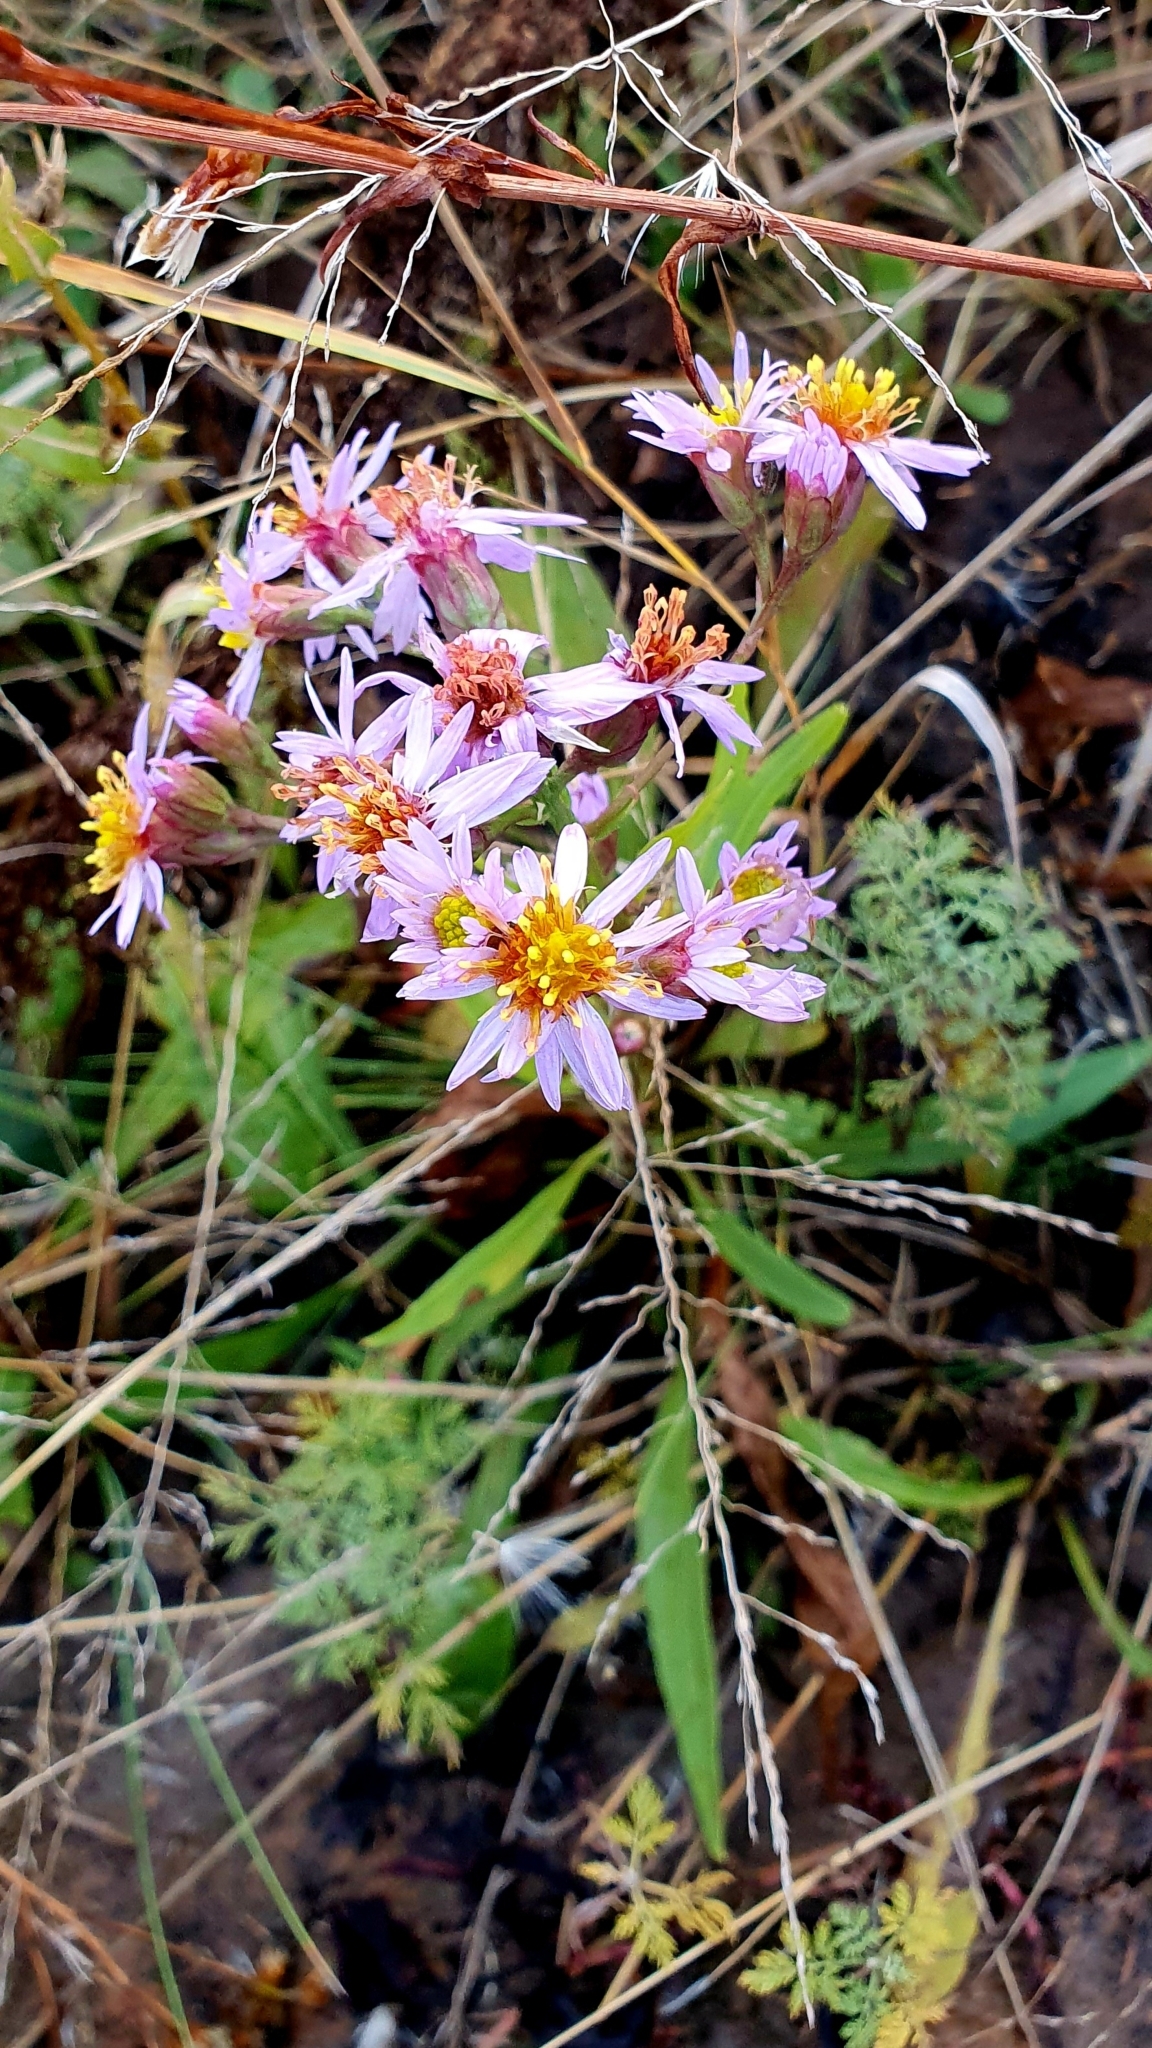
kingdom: Plantae
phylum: Tracheophyta
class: Magnoliopsida
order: Asterales
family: Asteraceae
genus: Tripolium
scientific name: Tripolium pannonicum
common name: Sea aster
